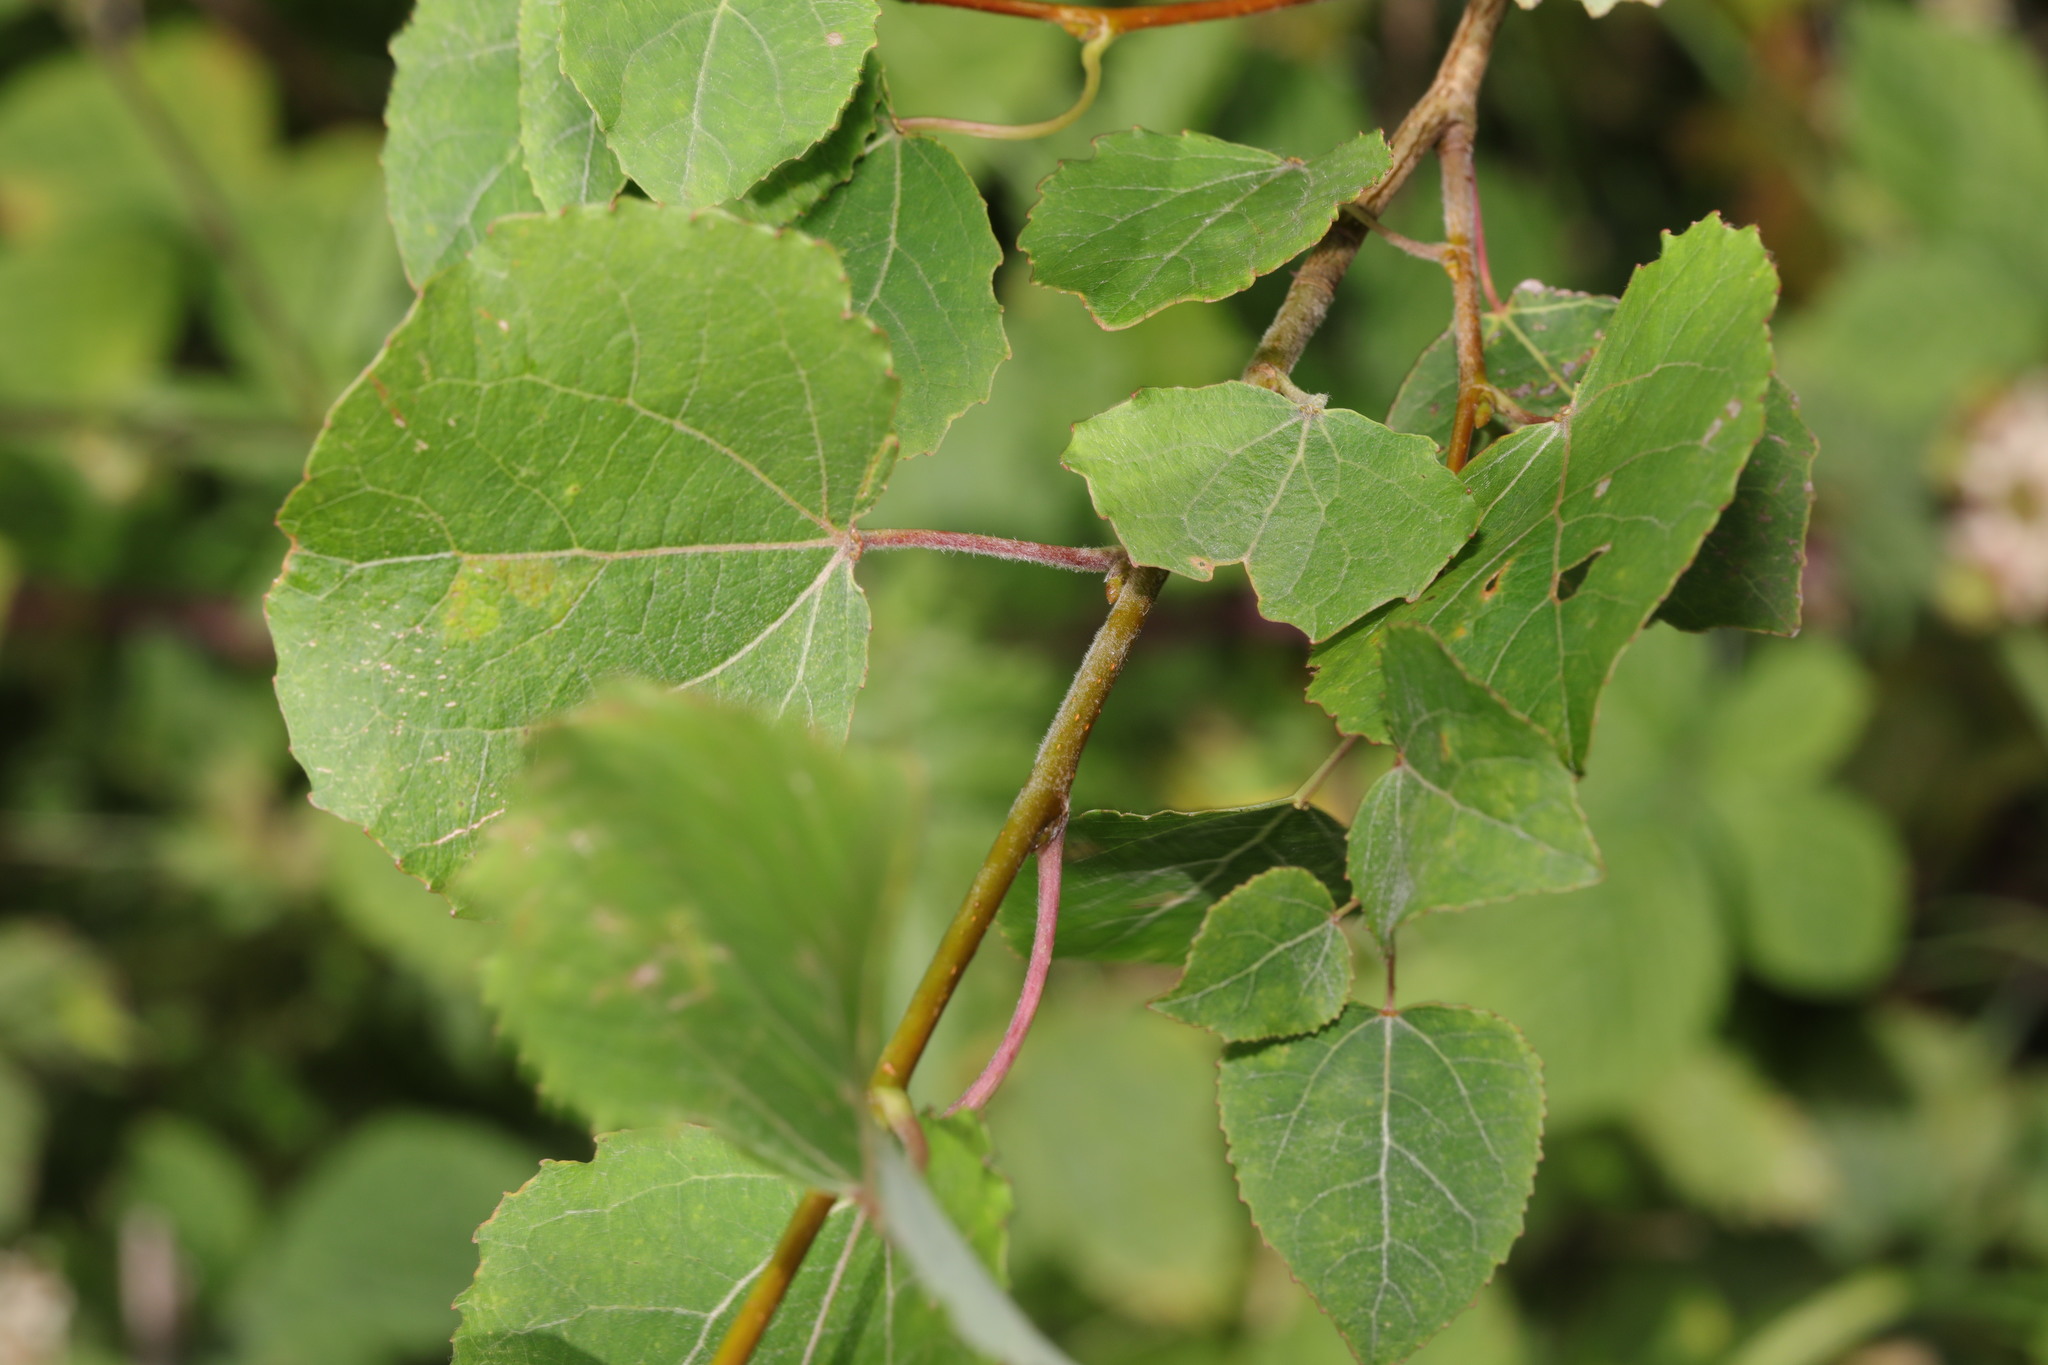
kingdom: Plantae
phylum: Tracheophyta
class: Magnoliopsida
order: Malpighiales
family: Salicaceae
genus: Populus
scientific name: Populus tremula
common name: European aspen
